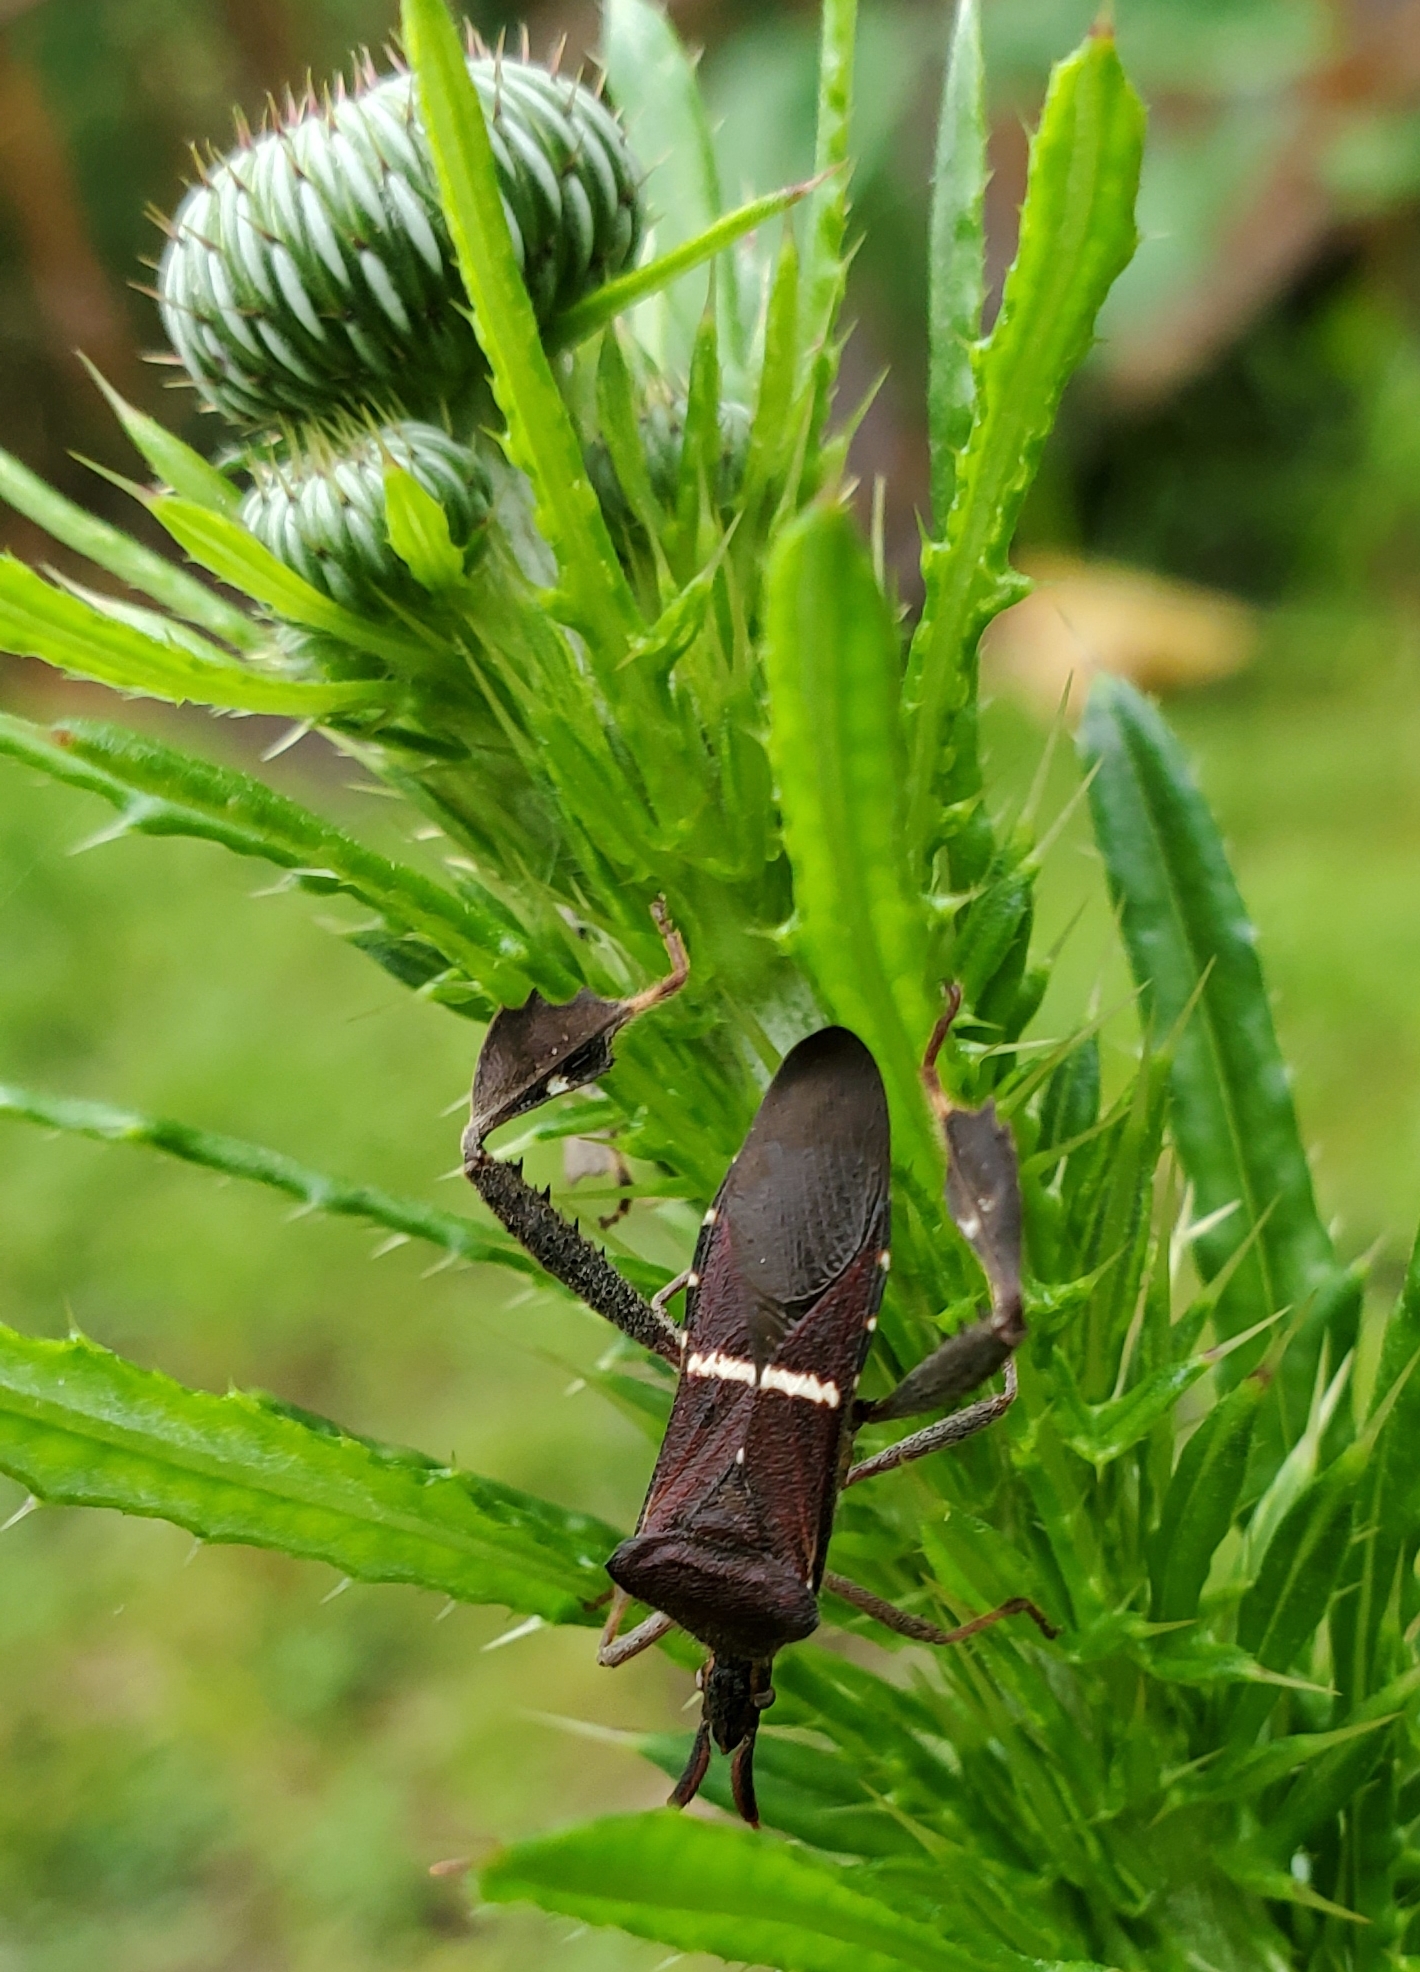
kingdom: Animalia
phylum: Arthropoda
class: Insecta
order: Hemiptera
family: Coreidae
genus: Leptoglossus
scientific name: Leptoglossus phyllopus
